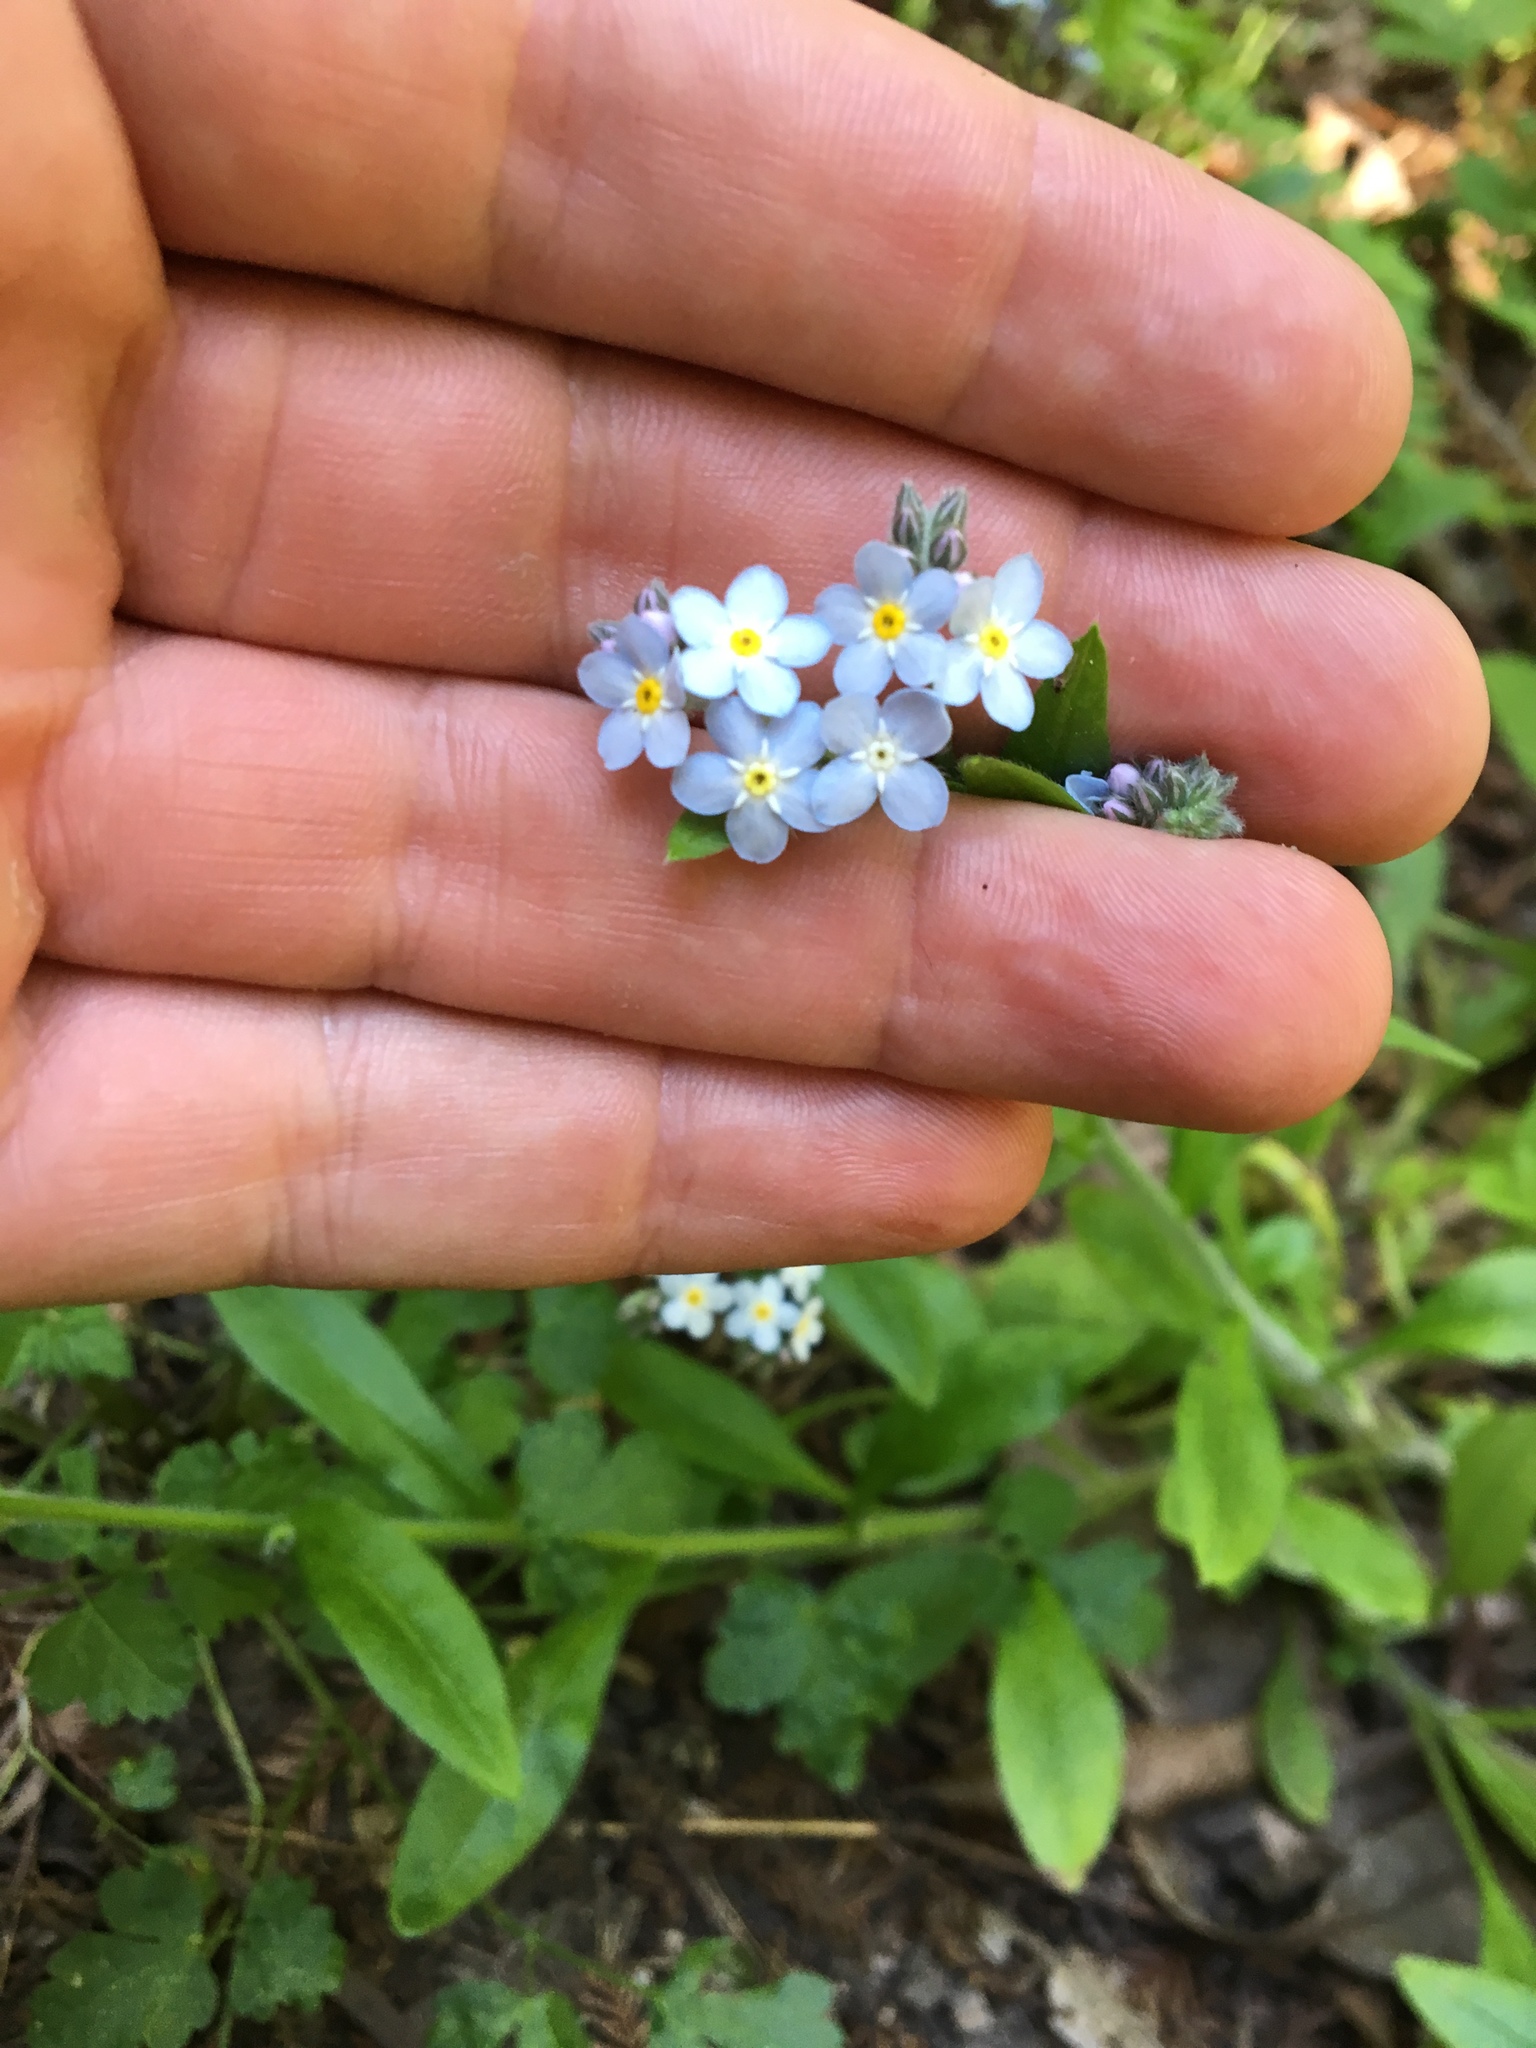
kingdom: Plantae
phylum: Tracheophyta
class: Magnoliopsida
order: Boraginales
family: Boraginaceae
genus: Myosotis
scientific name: Myosotis latifolia
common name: Broadleaf forget-me-not
